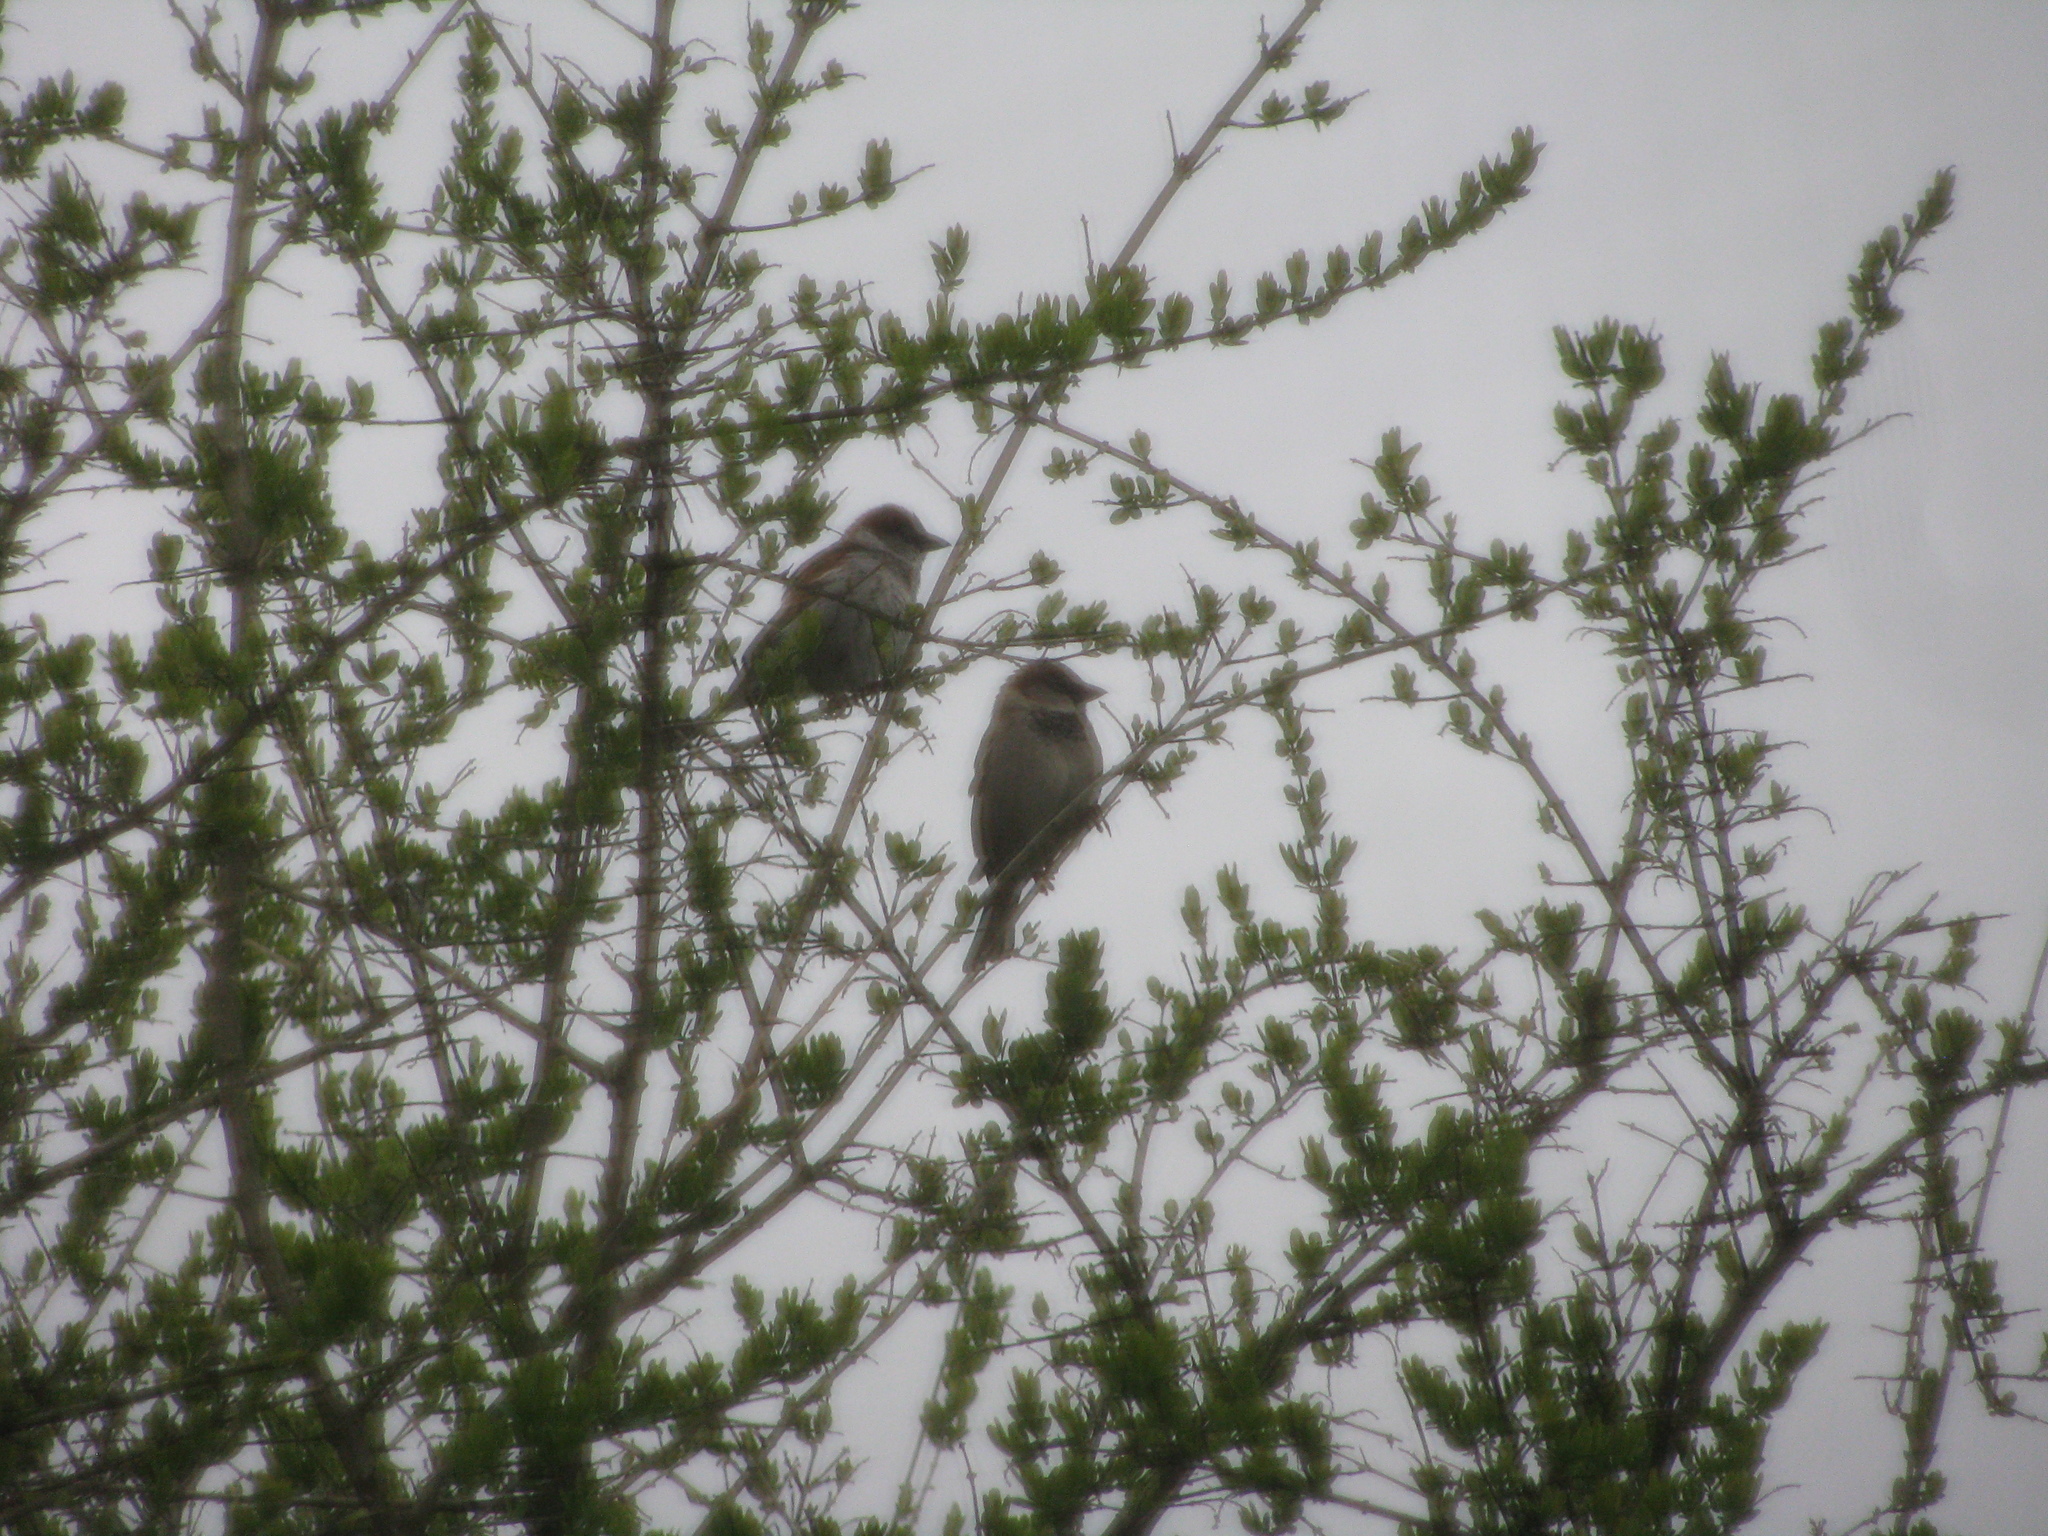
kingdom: Animalia
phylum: Chordata
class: Aves
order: Passeriformes
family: Passeridae
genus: Passer
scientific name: Passer domesticus
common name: House sparrow
